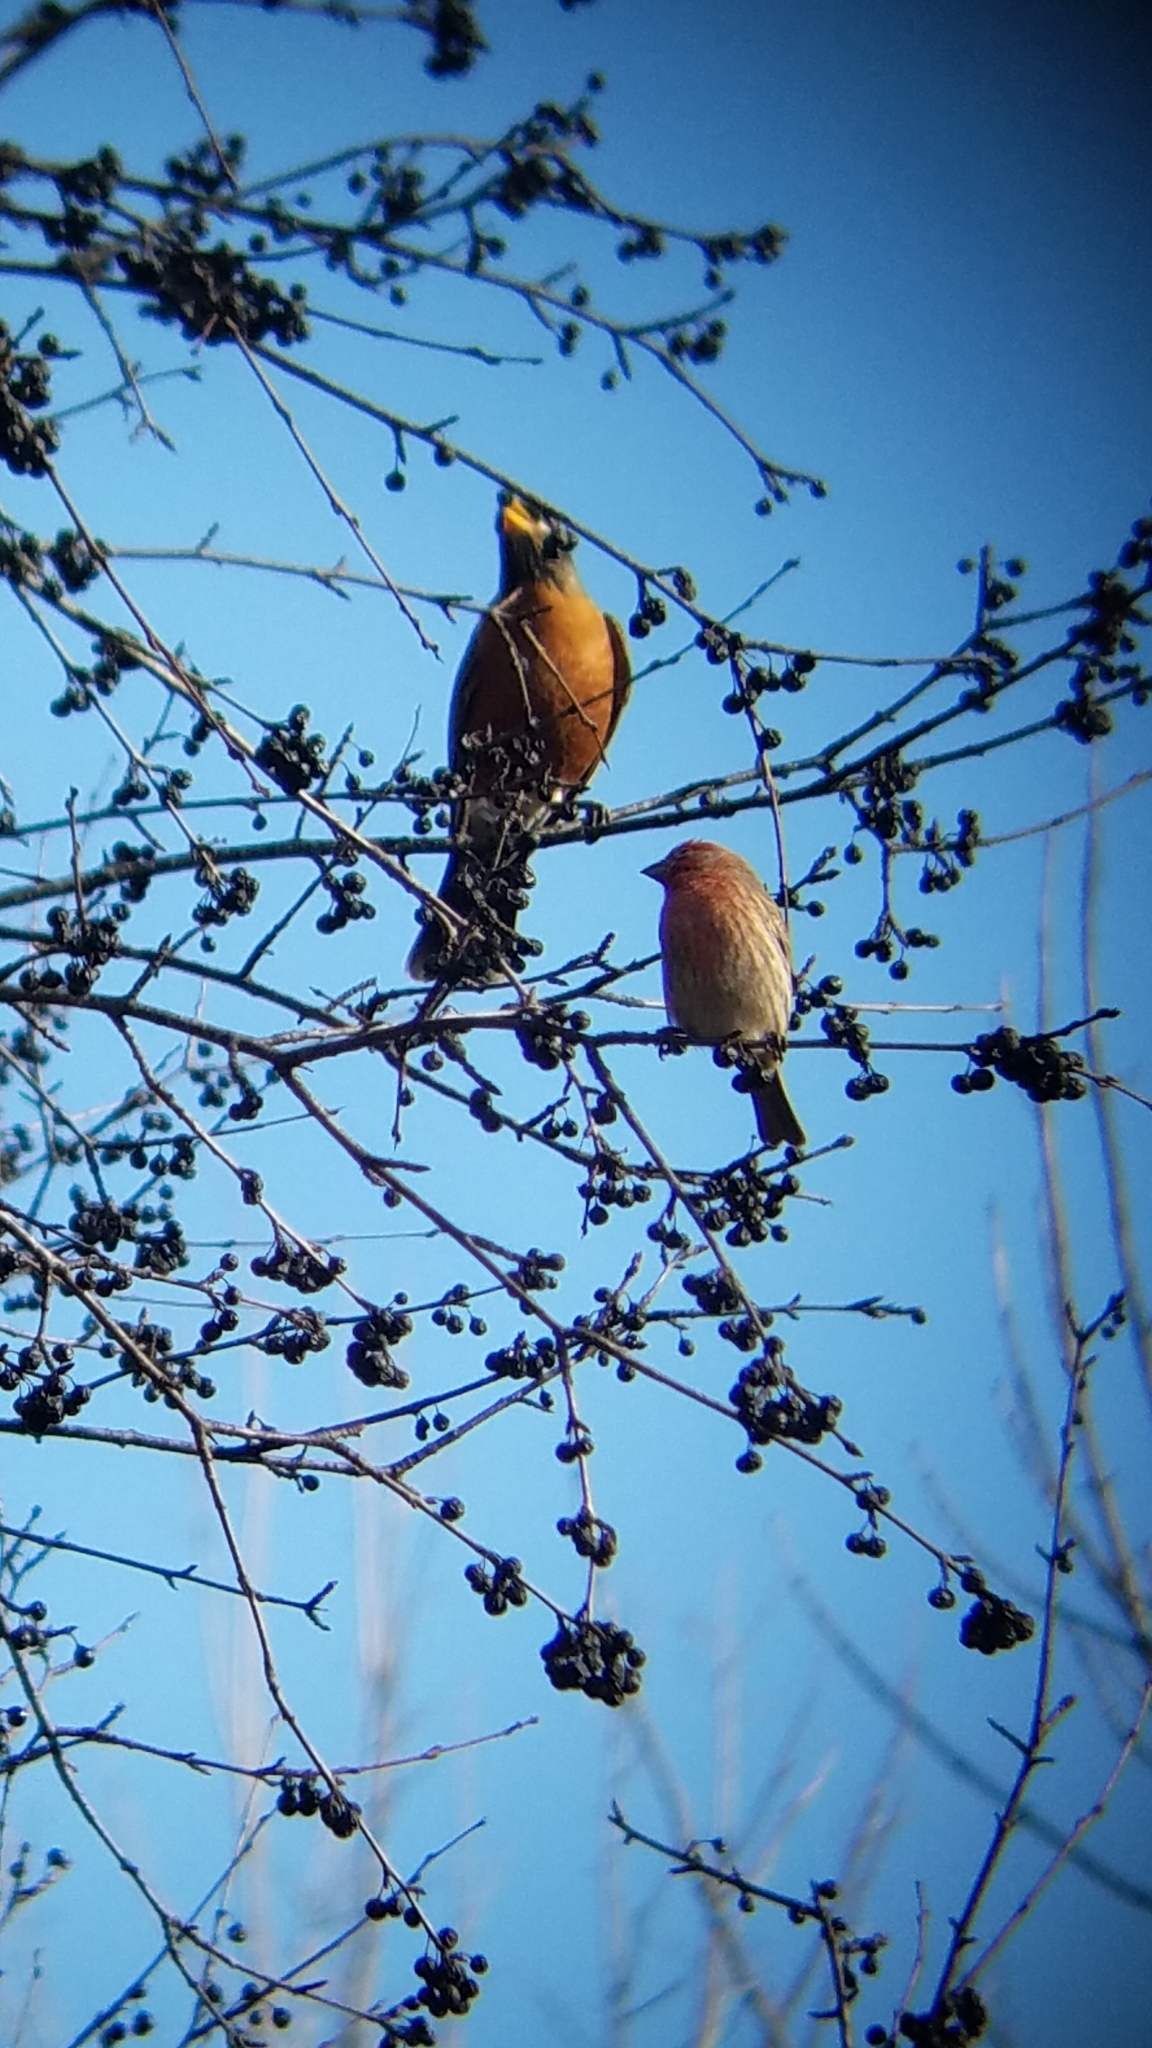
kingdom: Animalia
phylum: Chordata
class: Aves
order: Passeriformes
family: Fringillidae
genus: Haemorhous
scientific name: Haemorhous mexicanus
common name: House finch
